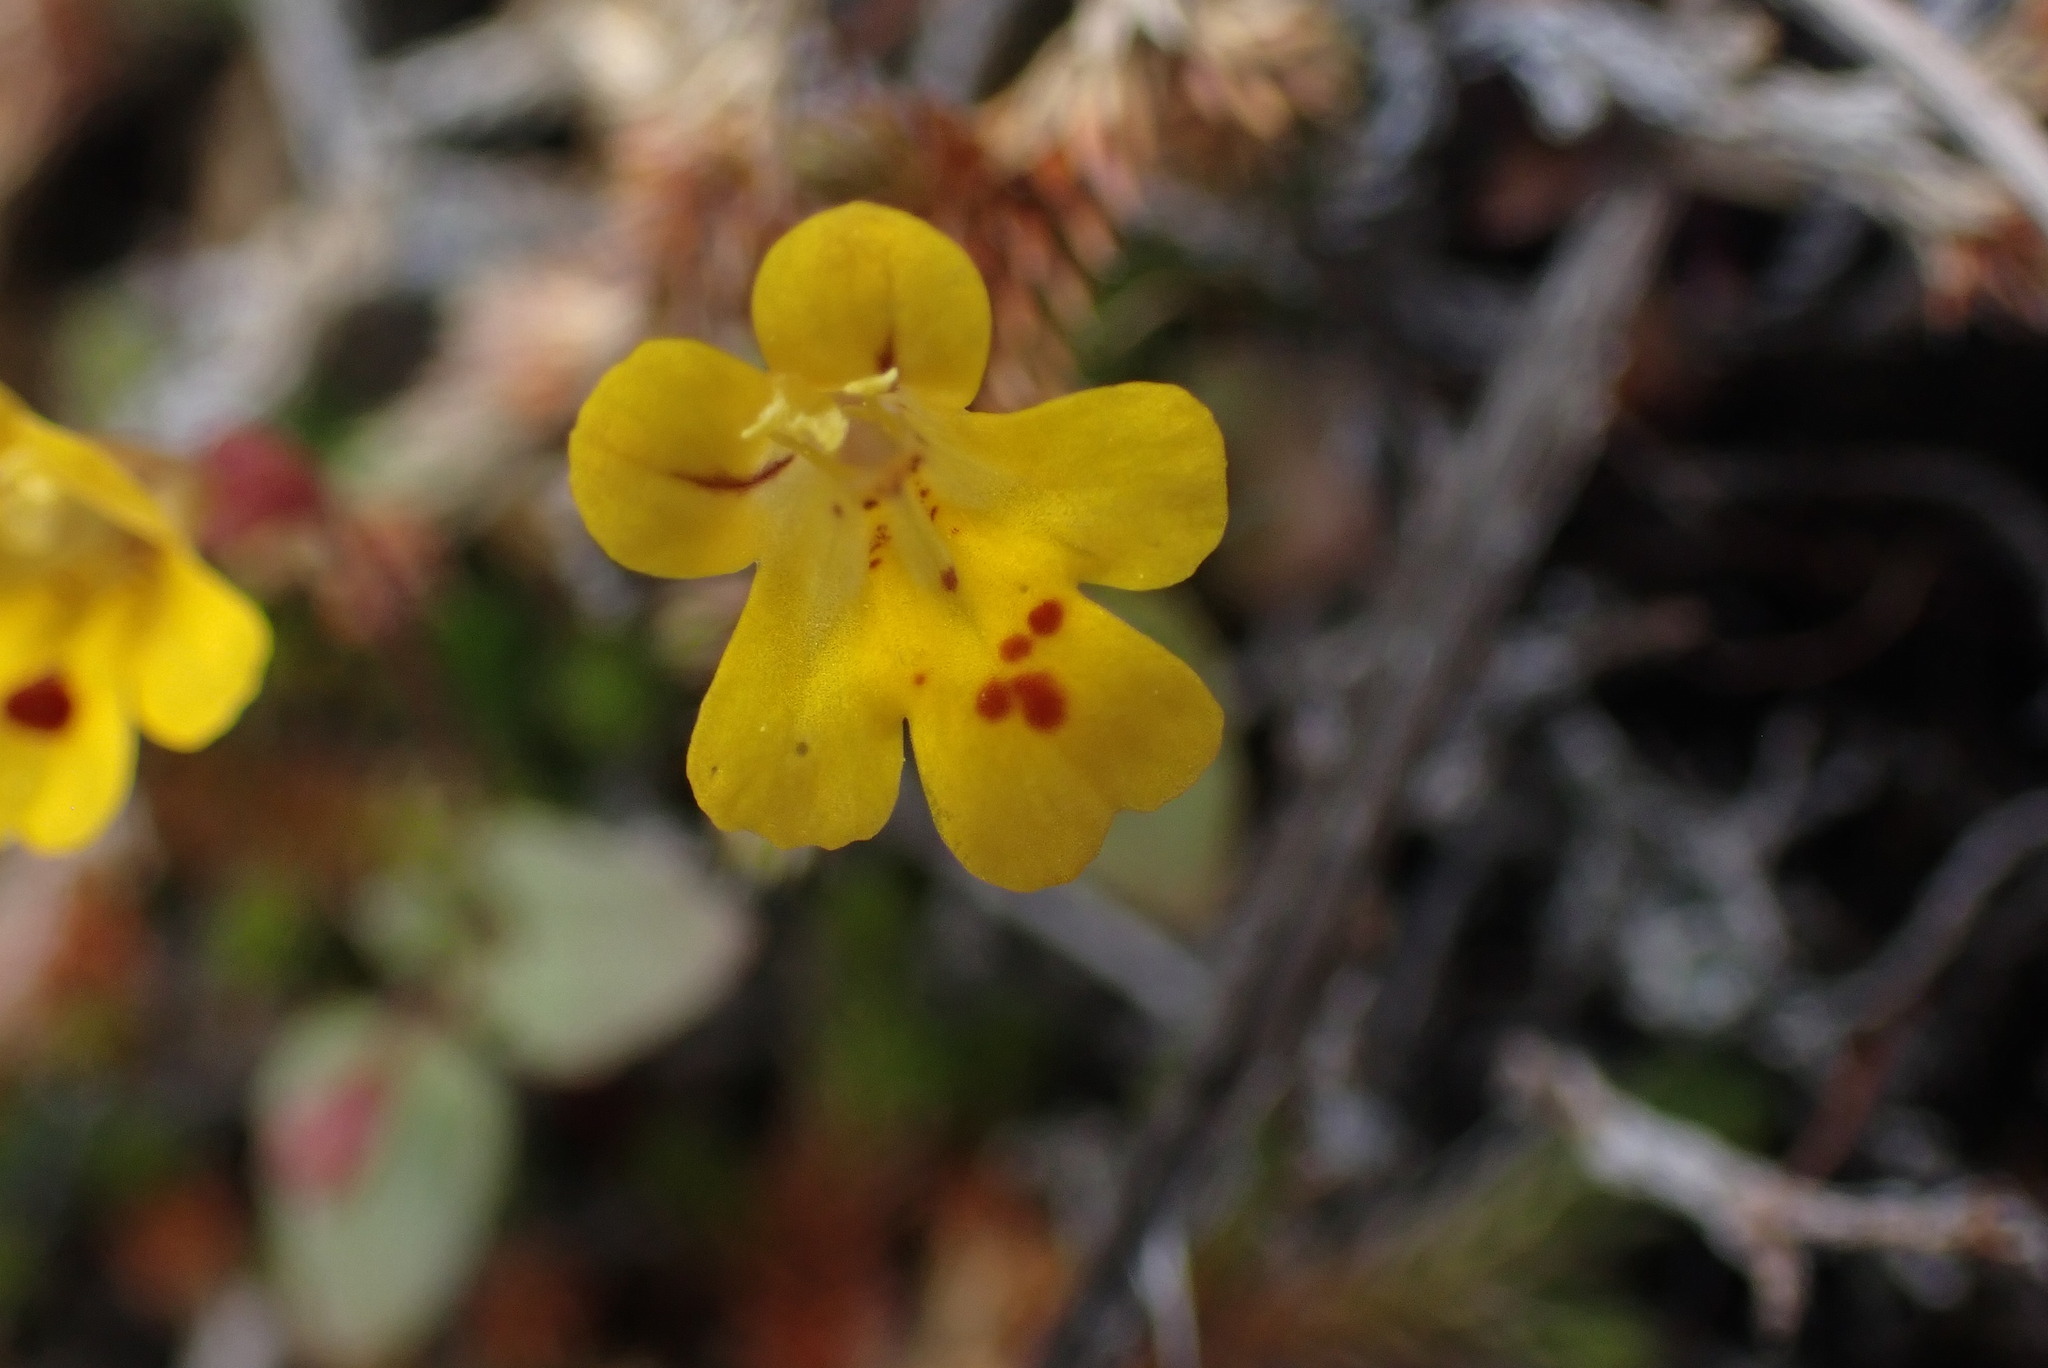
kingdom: Plantae
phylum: Tracheophyta
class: Magnoliopsida
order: Lamiales
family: Phrymaceae
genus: Erythranthe
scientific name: Erythranthe alsinoides
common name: Chickweed monkeyflower
